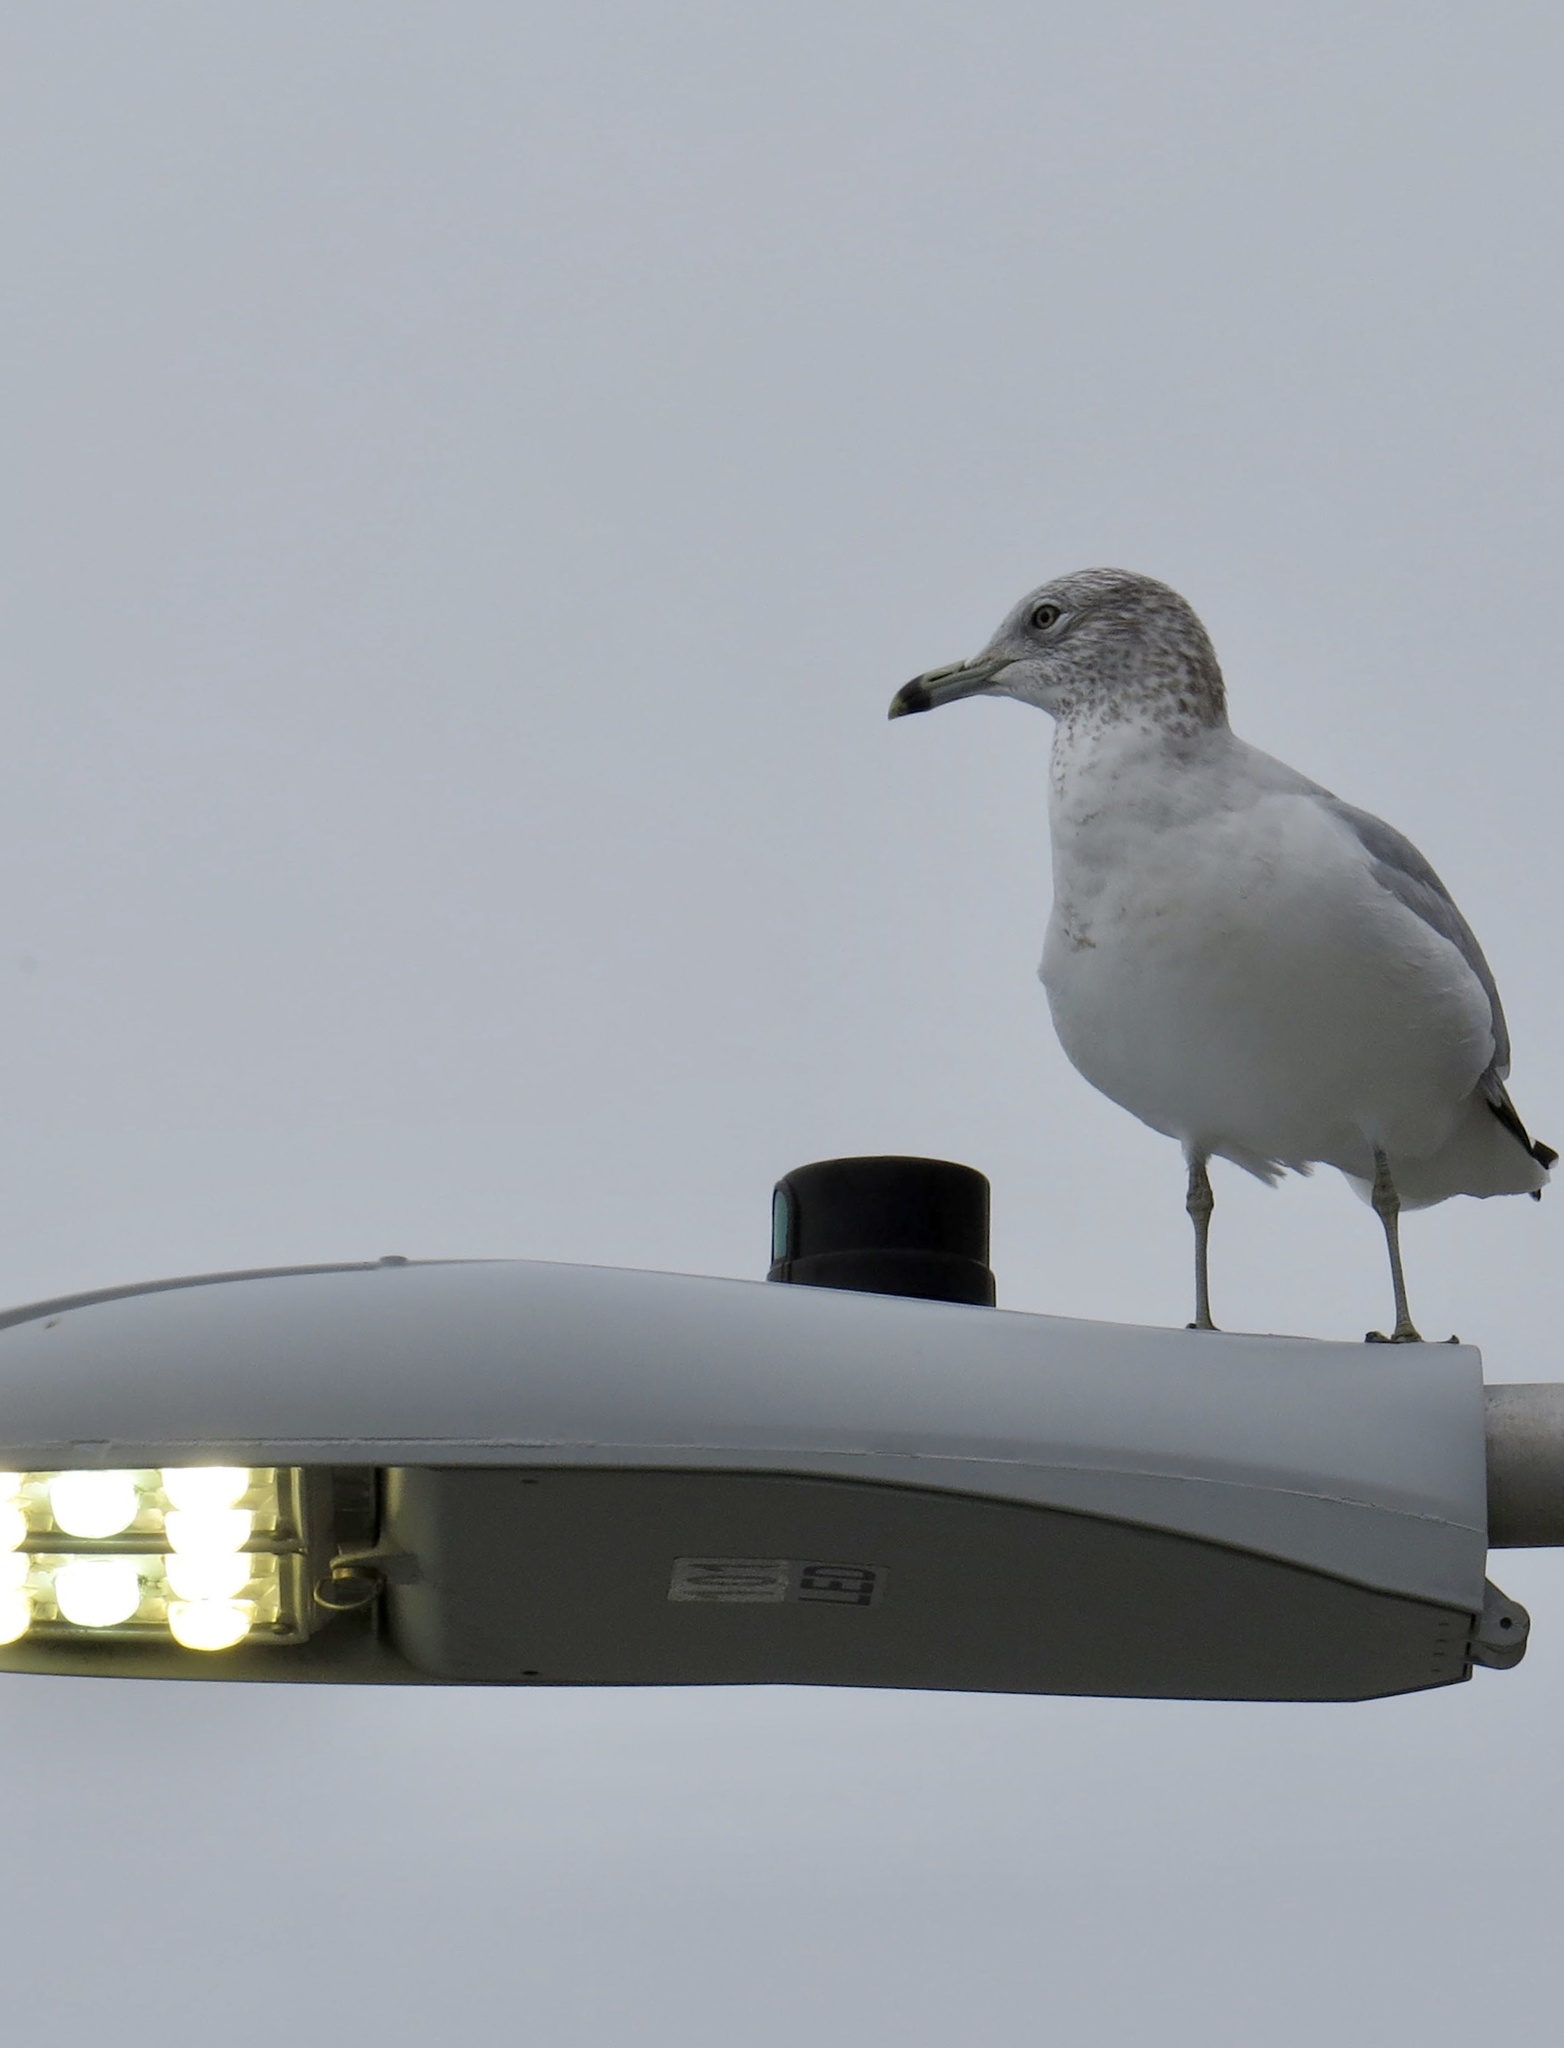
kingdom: Animalia
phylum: Chordata
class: Aves
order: Charadriiformes
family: Laridae
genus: Larus
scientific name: Larus delawarensis
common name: Ring-billed gull
